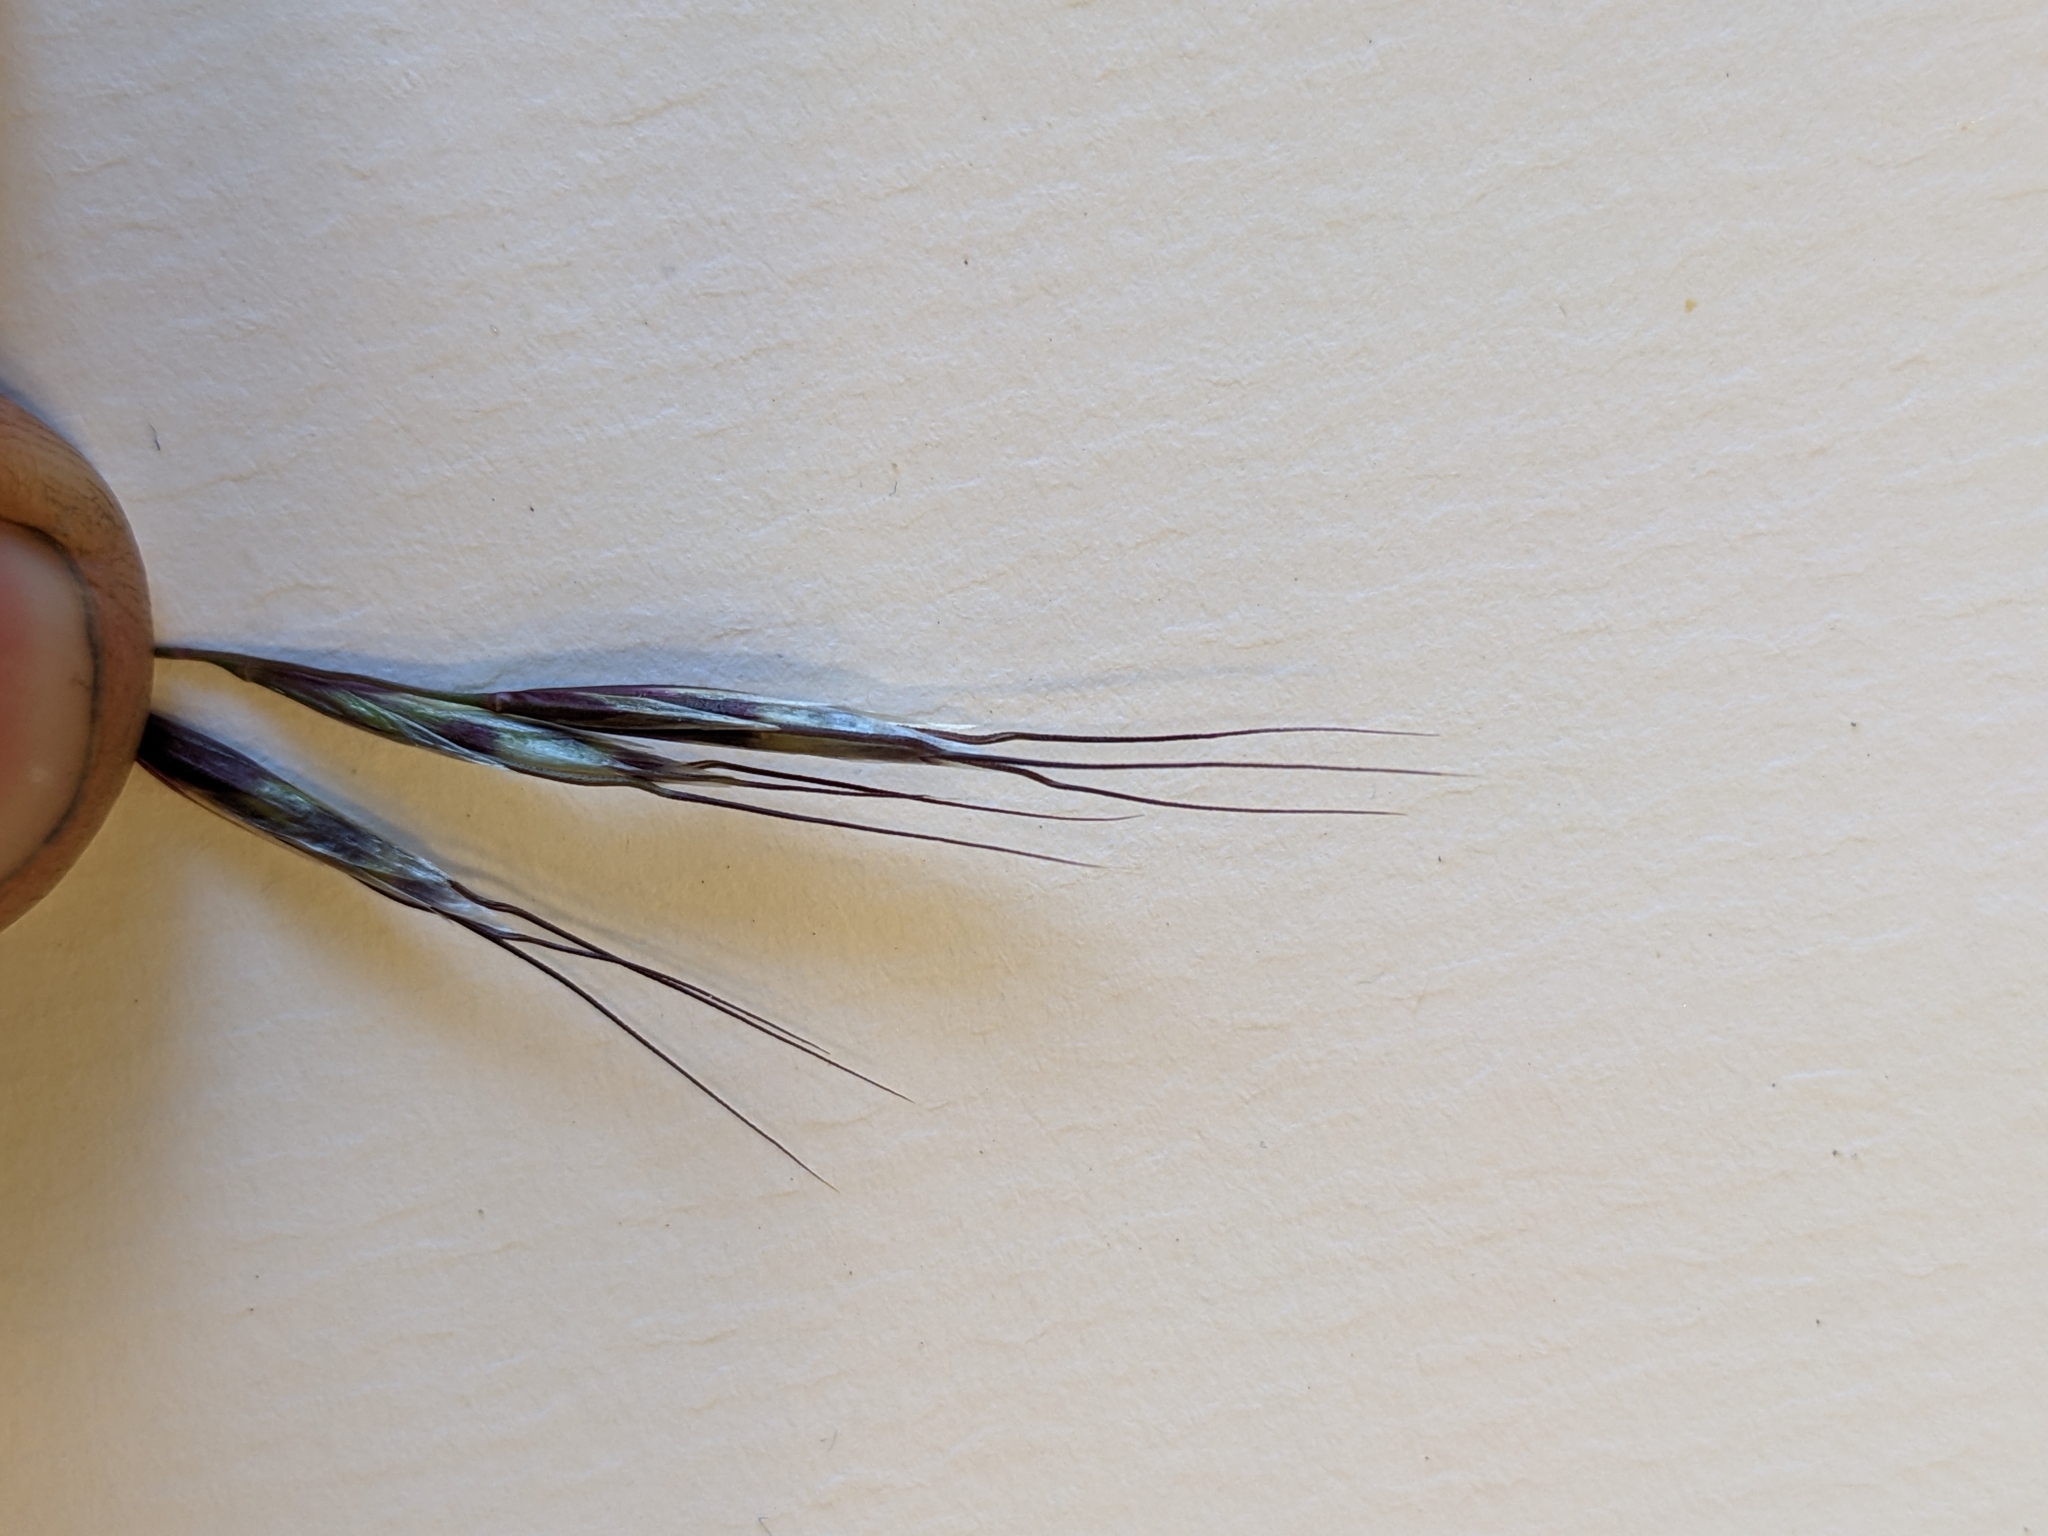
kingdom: Plantae
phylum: Tracheophyta
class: Liliopsida
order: Poales
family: Poaceae
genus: Avenula
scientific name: Avenula pubescens
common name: Downy alpine oatgrass
